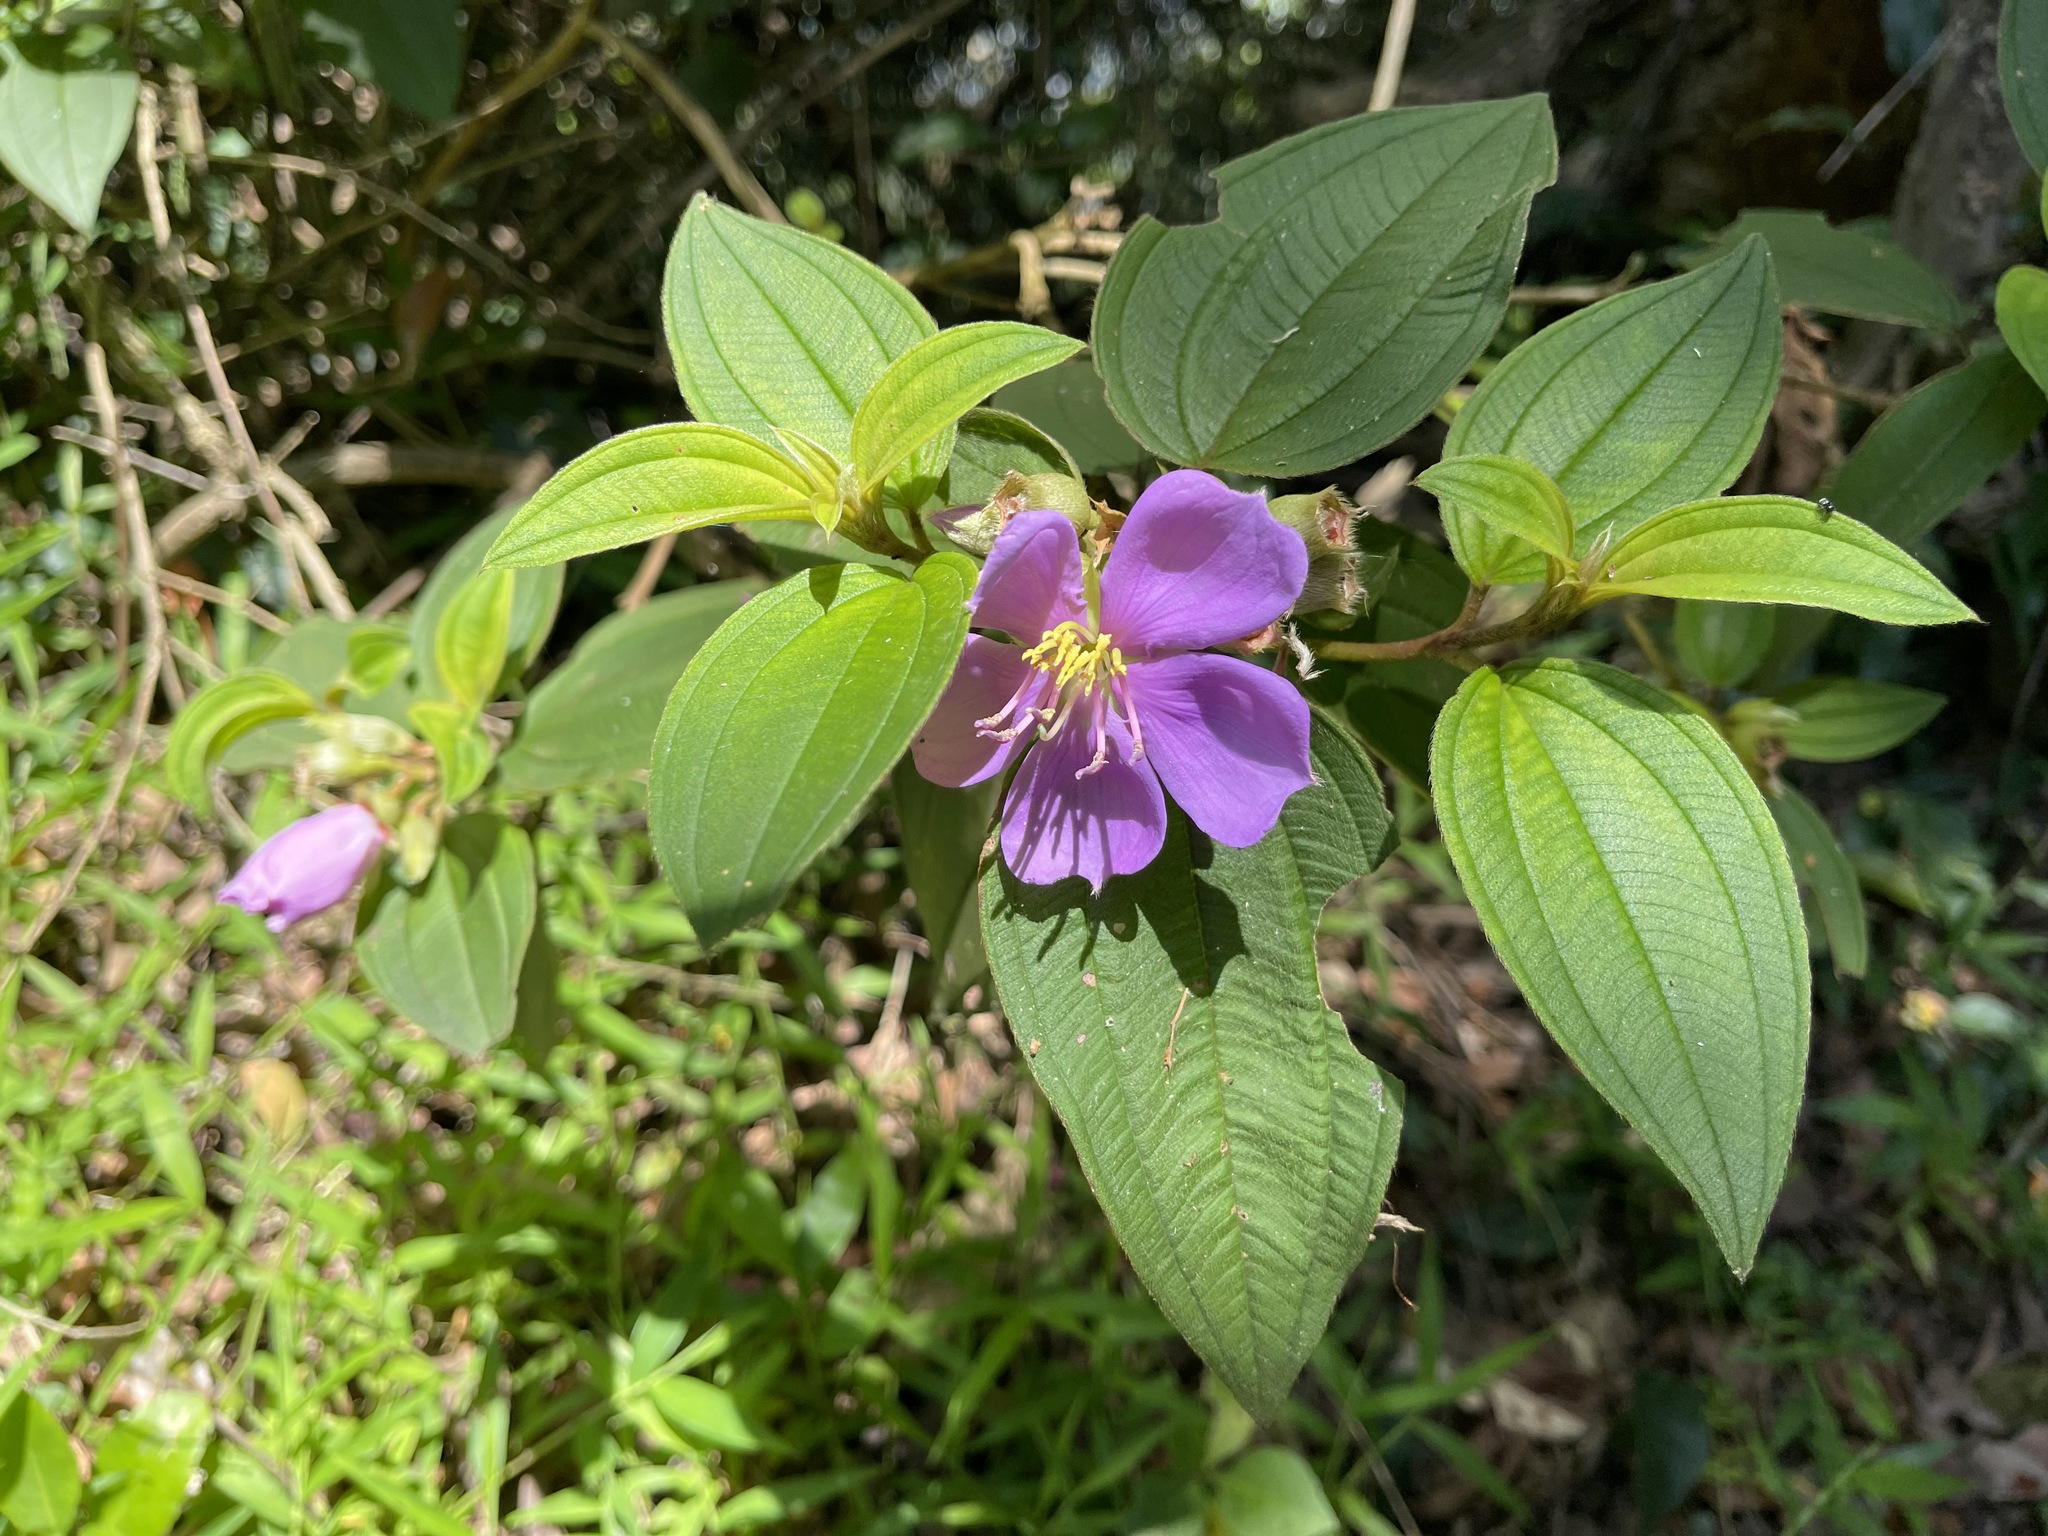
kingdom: Plantae
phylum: Tracheophyta
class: Magnoliopsida
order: Myrtales
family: Melastomataceae
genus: Melastoma
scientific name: Melastoma malabathricum
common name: Indian-rhododendron
